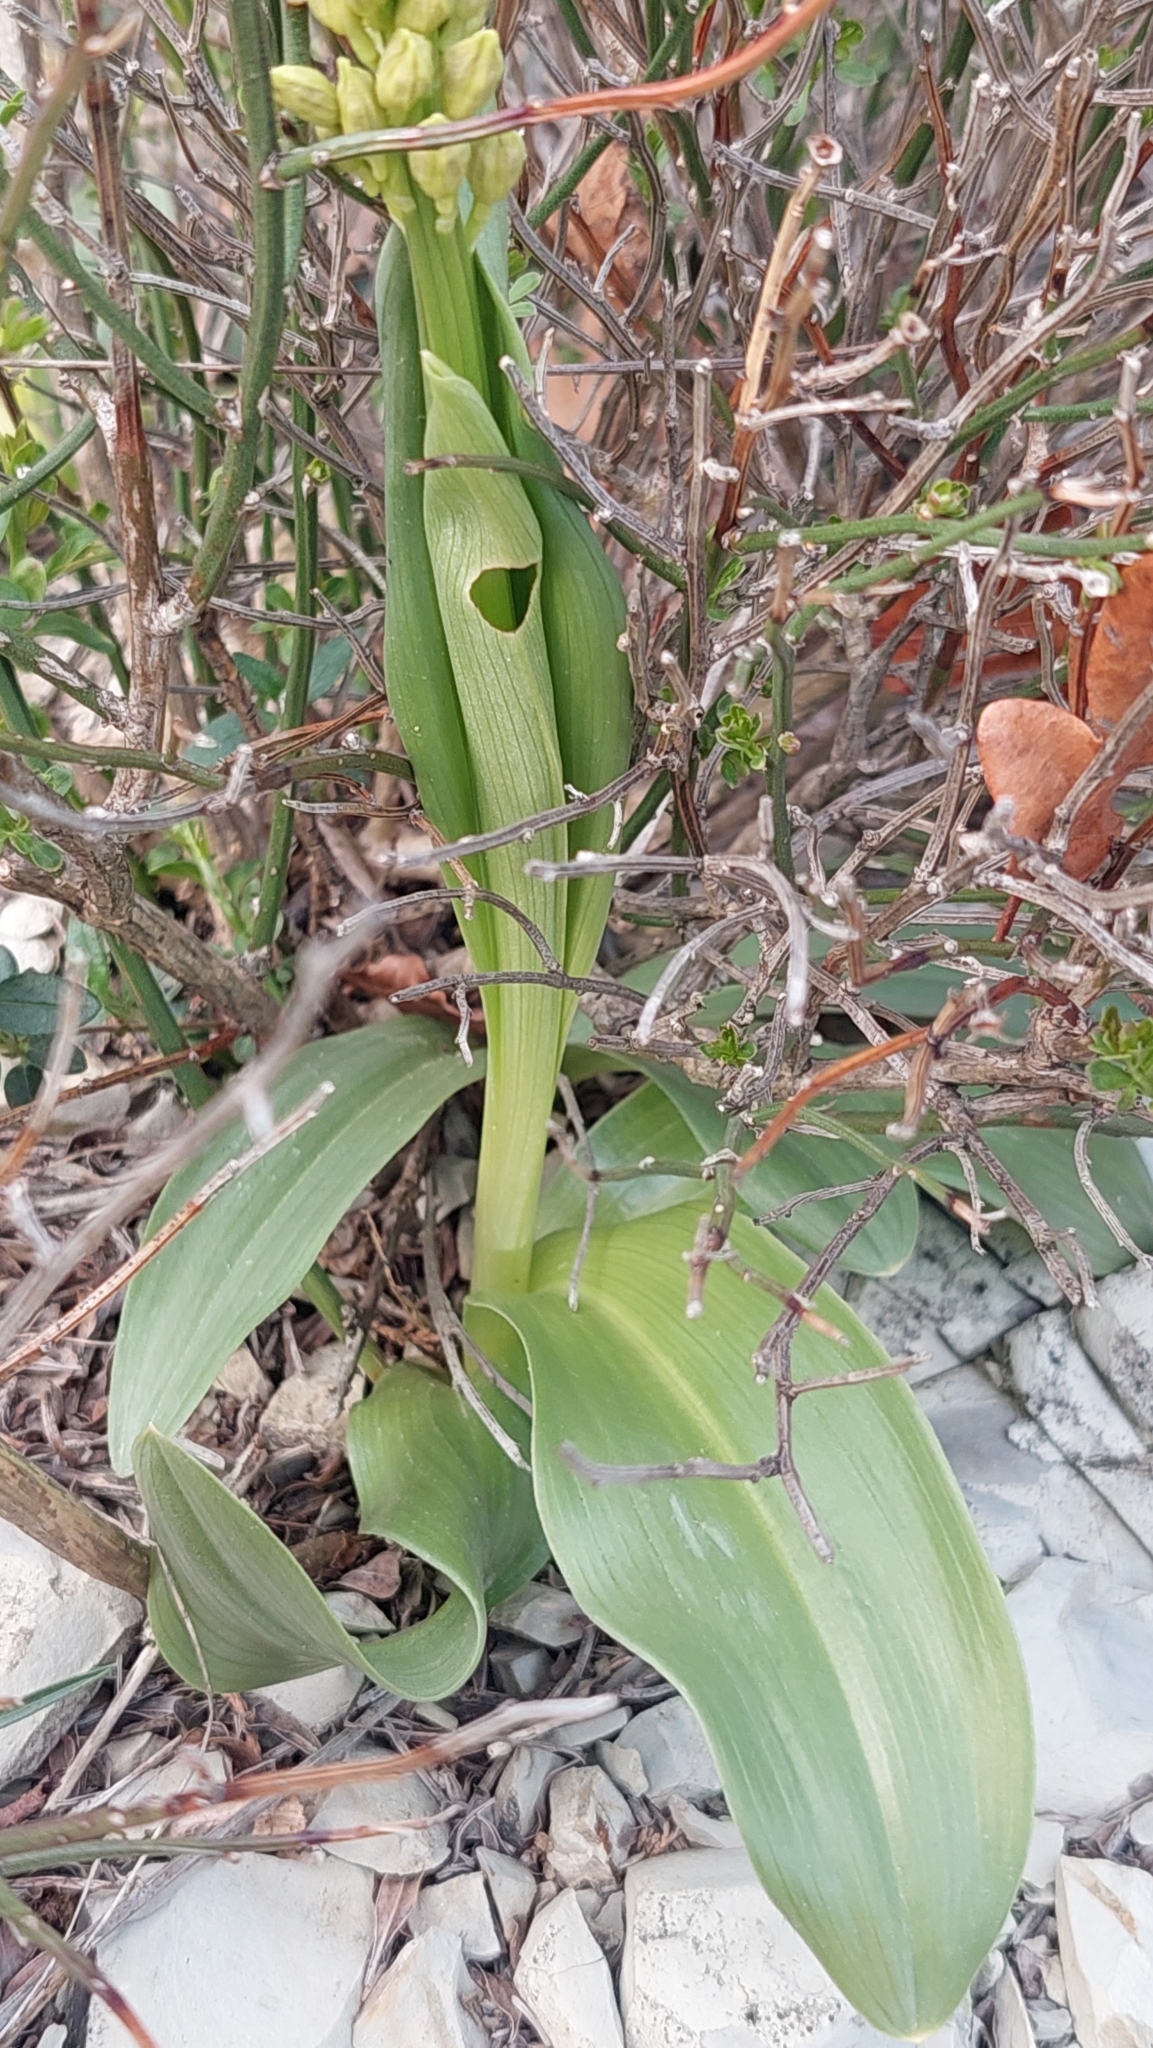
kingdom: Plantae
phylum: Tracheophyta
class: Liliopsida
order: Asparagales
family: Orchidaceae
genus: Orchis
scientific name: Orchis punctulata
